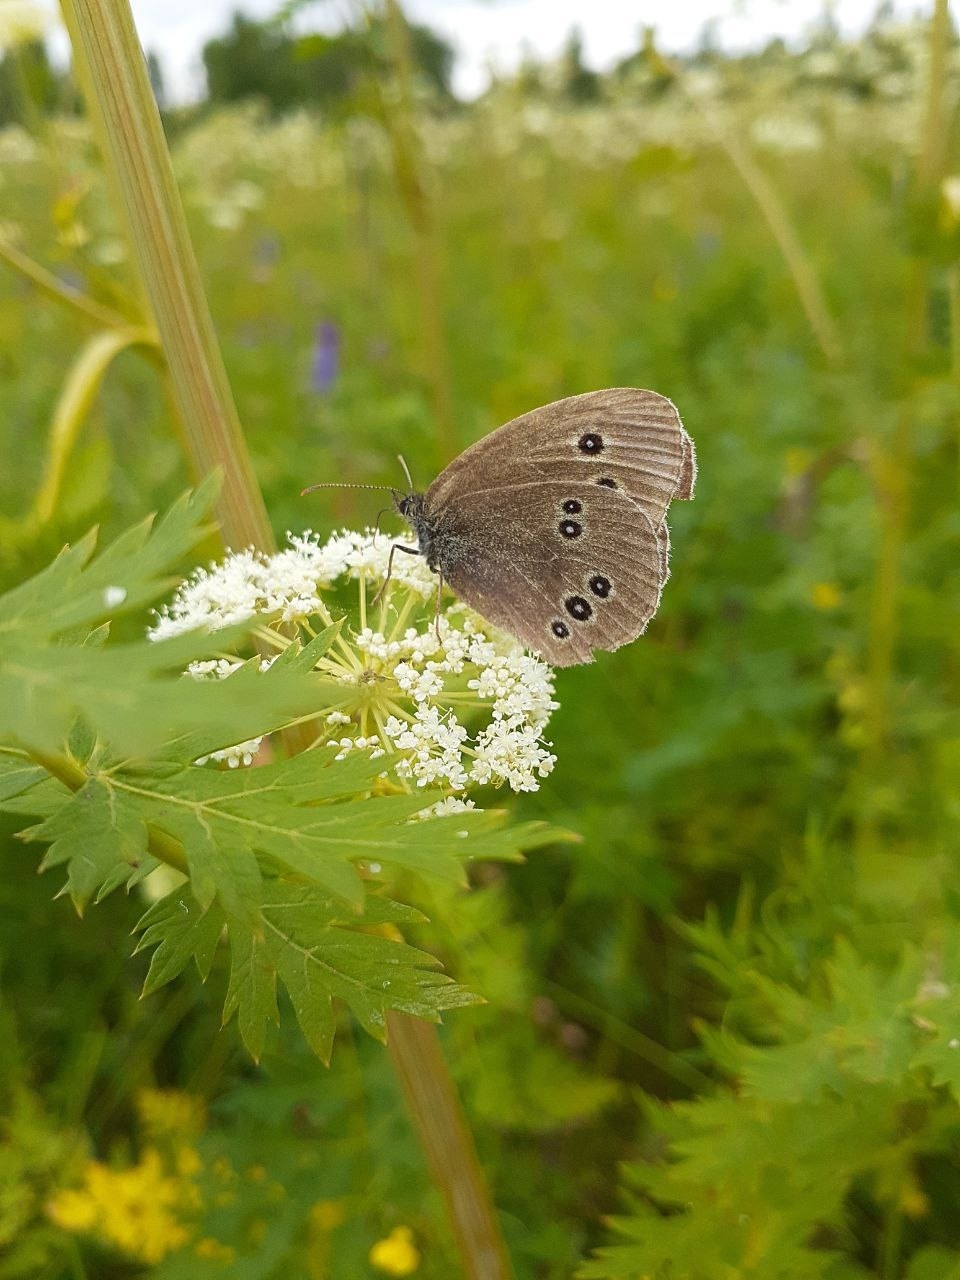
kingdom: Animalia
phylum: Arthropoda
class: Insecta
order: Lepidoptera
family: Nymphalidae
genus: Aphantopus
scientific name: Aphantopus hyperantus
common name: Ringlet
